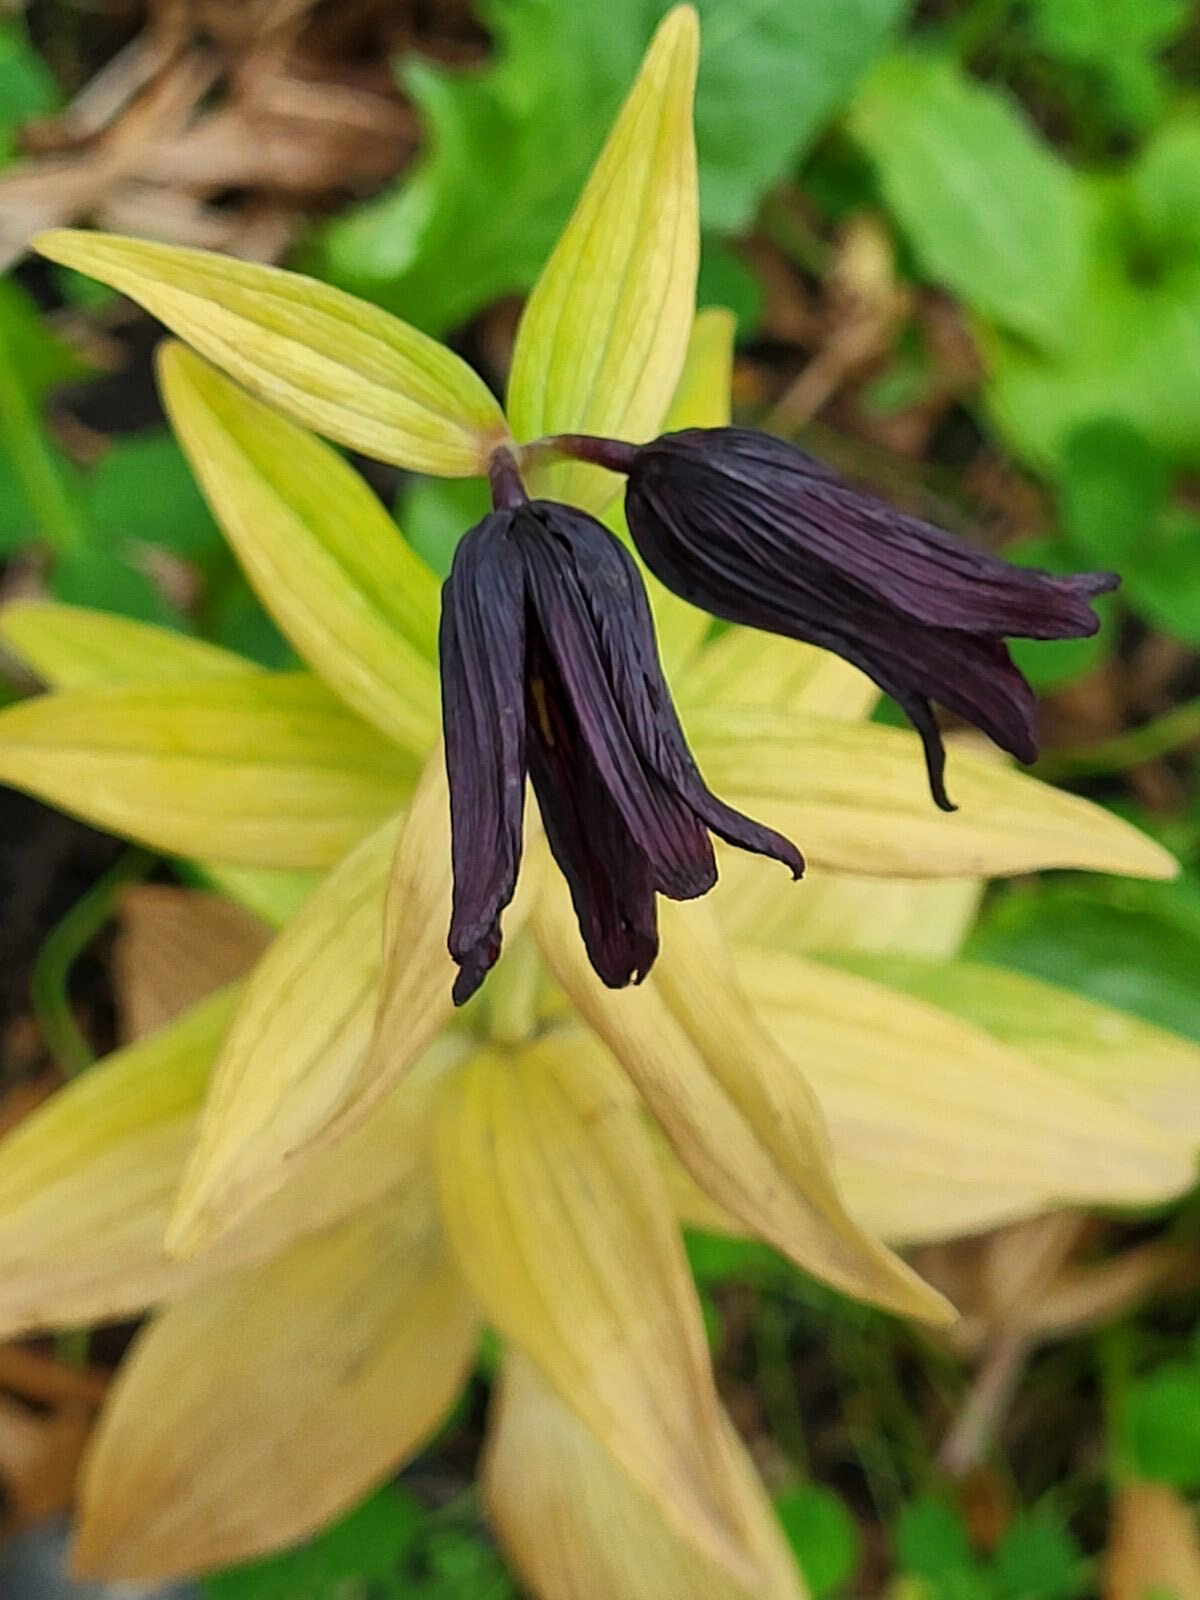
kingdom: Plantae
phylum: Tracheophyta
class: Liliopsida
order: Liliales
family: Liliaceae
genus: Fritillaria
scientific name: Fritillaria camschatcensis
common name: Kamchatka fritillary
